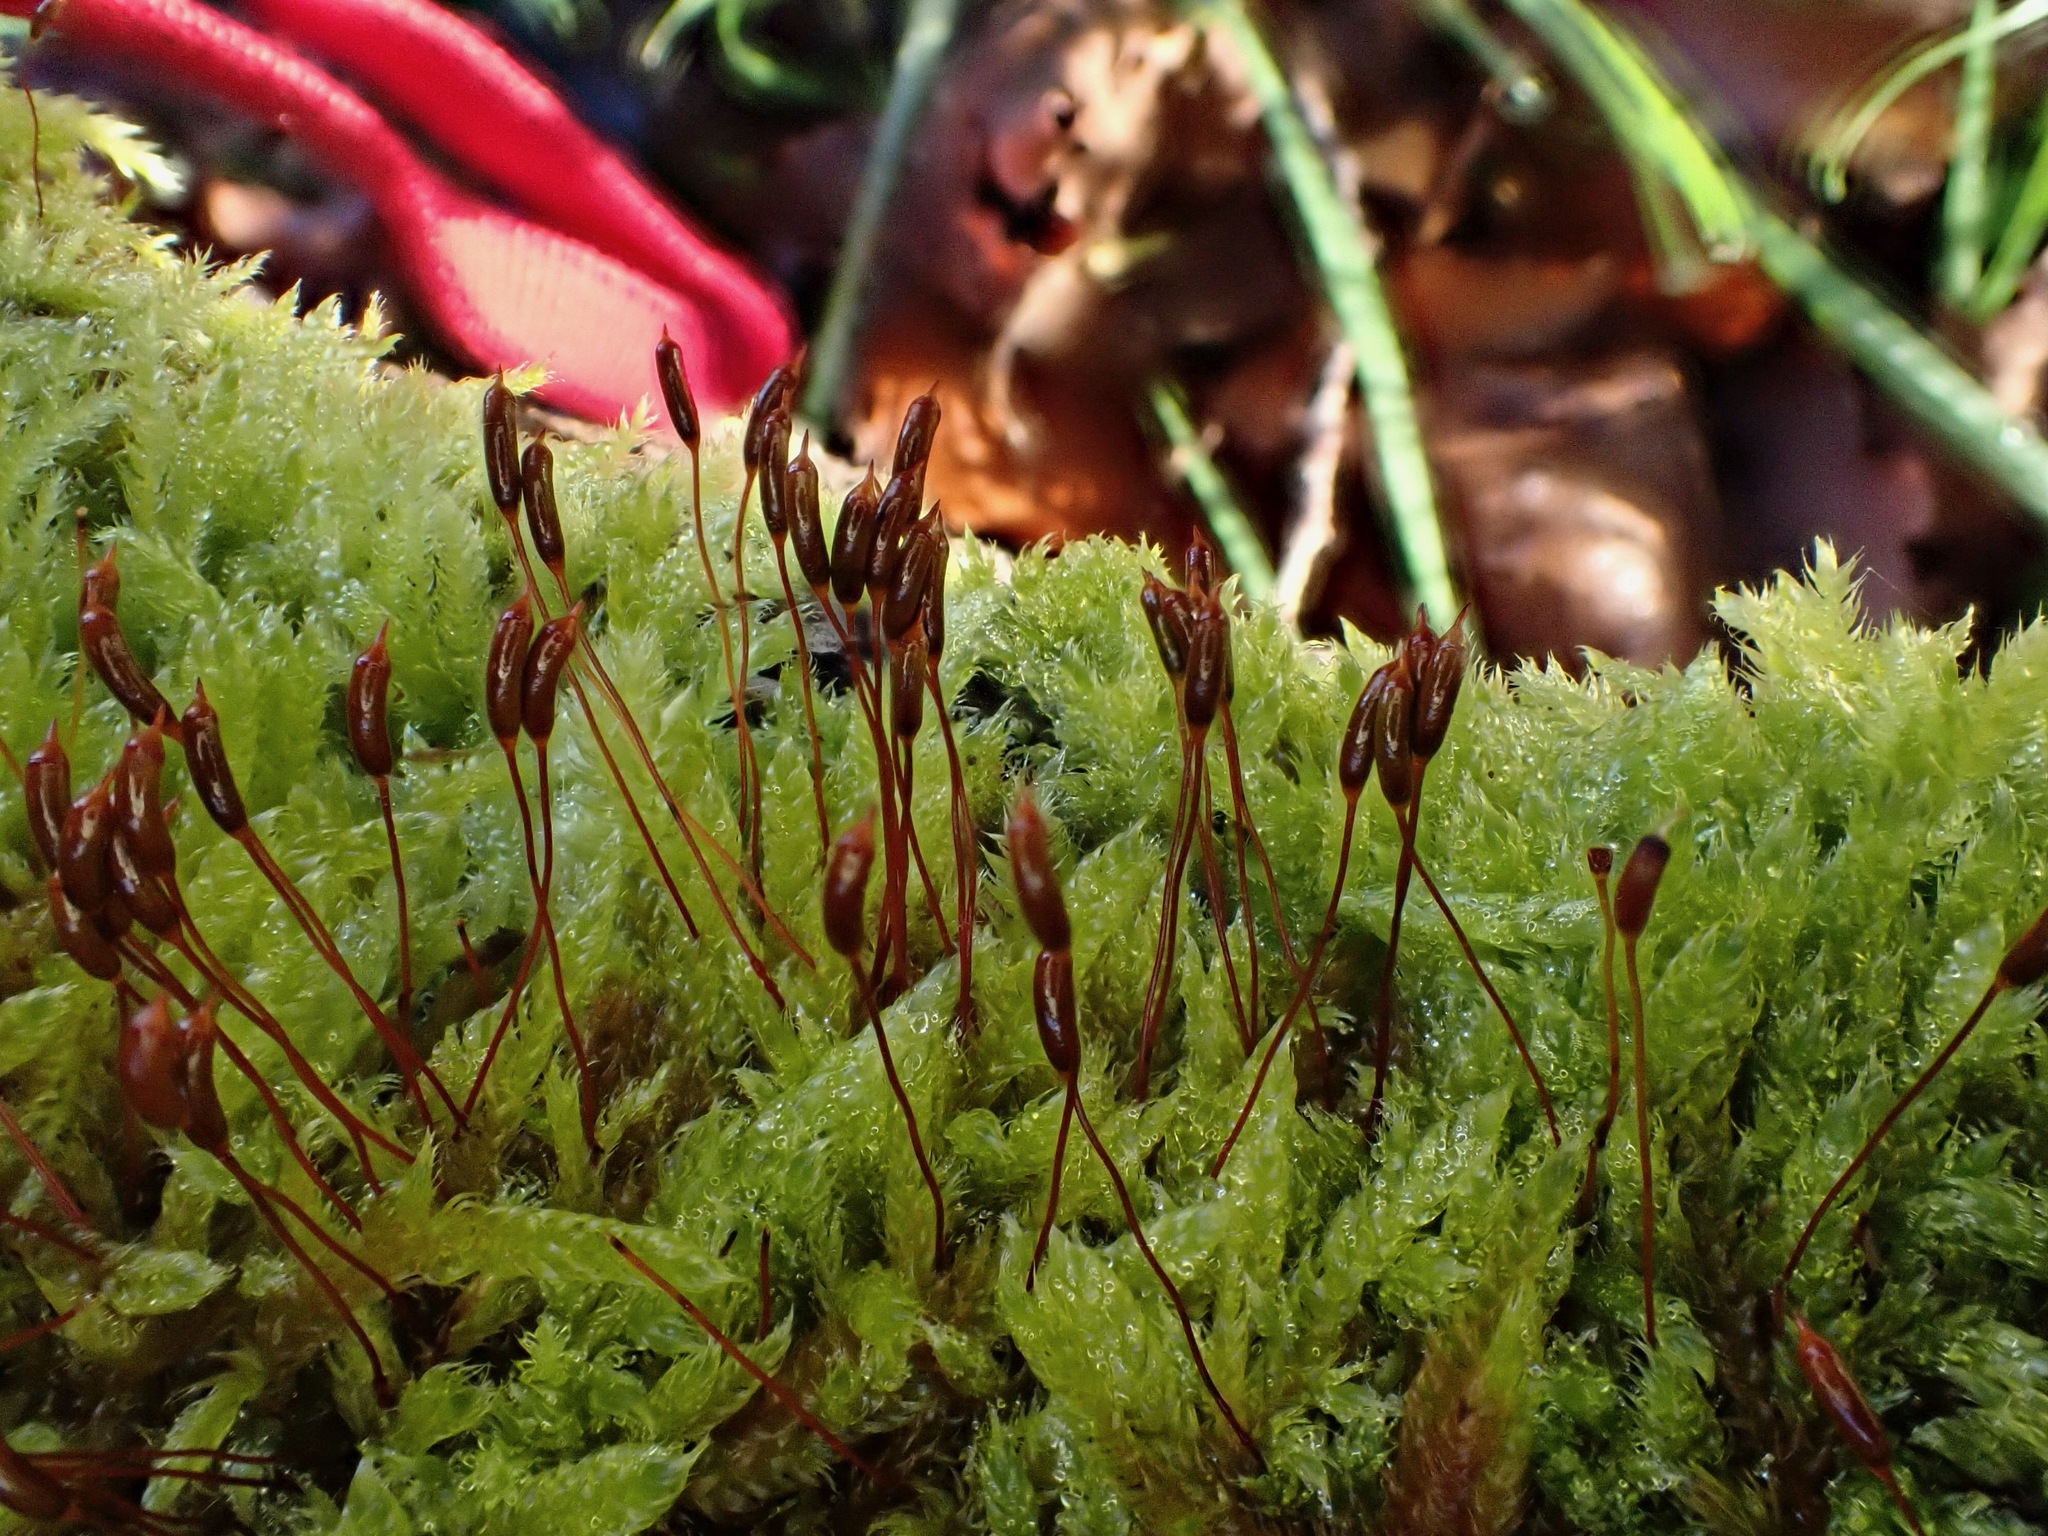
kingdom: Plantae
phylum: Bryophyta
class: Bryopsida
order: Hypnales
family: Hypnaceae
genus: Hypnum
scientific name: Hypnum cupressiforme
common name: Cypress-leaved plait-moss
